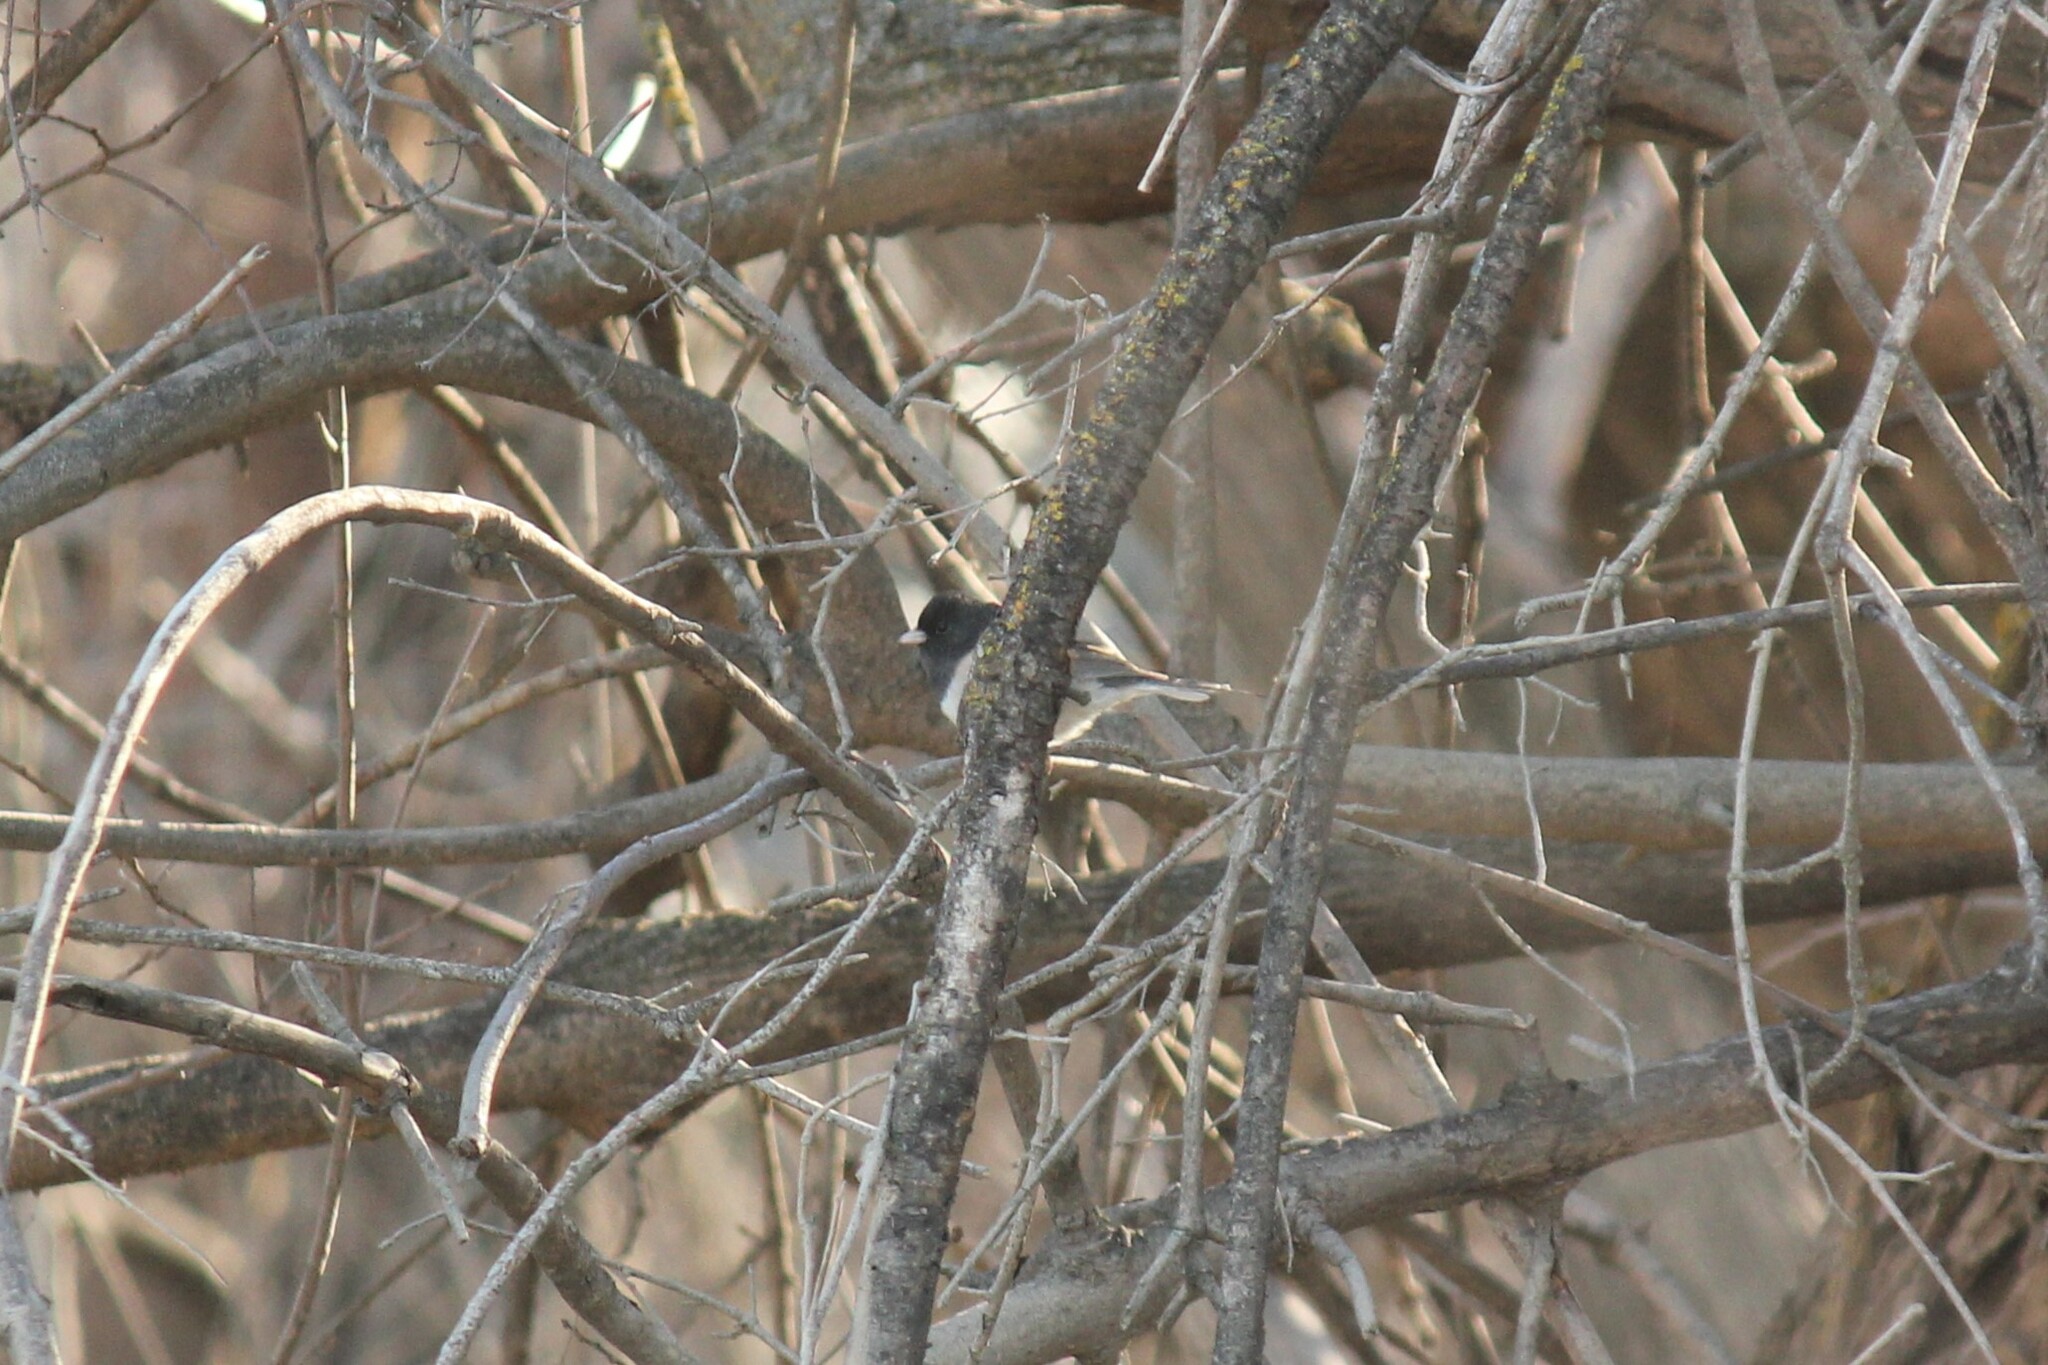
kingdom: Animalia
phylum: Chordata
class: Aves
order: Passeriformes
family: Passerellidae
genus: Junco
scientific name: Junco hyemalis
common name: Dark-eyed junco
